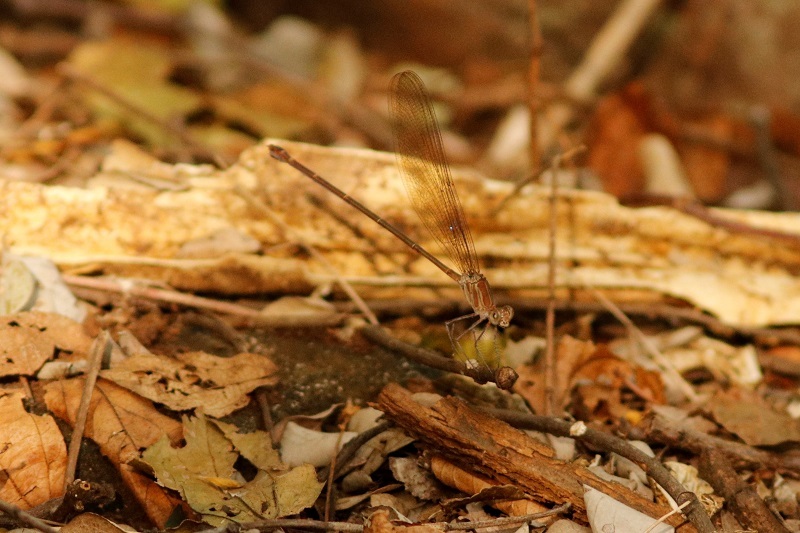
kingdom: Animalia
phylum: Arthropoda
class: Insecta
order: Odonata
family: Calopterygidae
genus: Phaon
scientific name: Phaon iridipennis
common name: Glistening demoiselle
